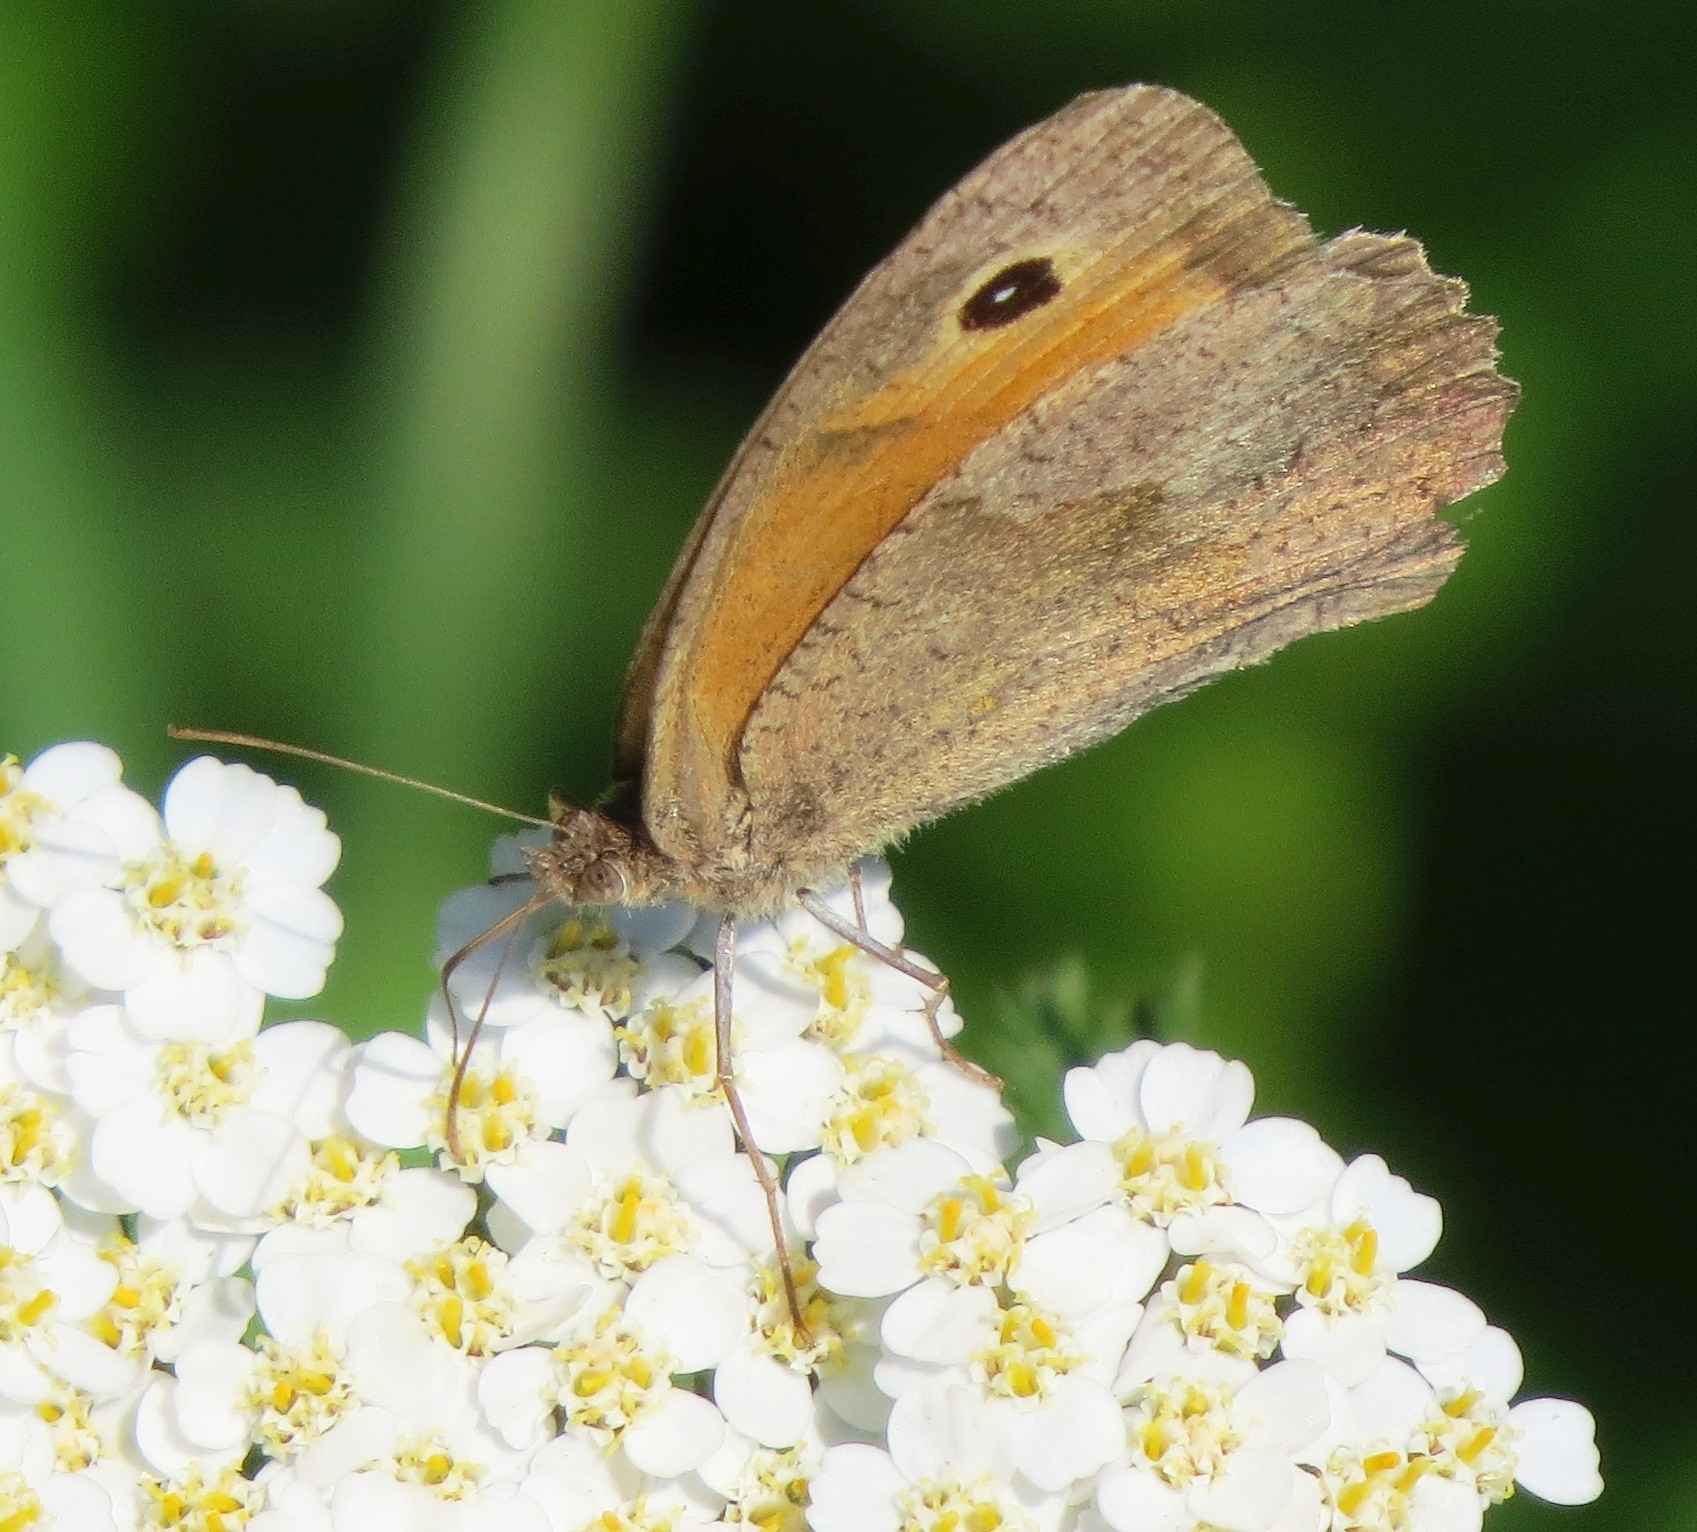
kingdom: Animalia
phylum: Arthropoda
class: Insecta
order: Lepidoptera
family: Nymphalidae
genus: Maniola
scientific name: Maniola jurtina
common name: Meadow brown
